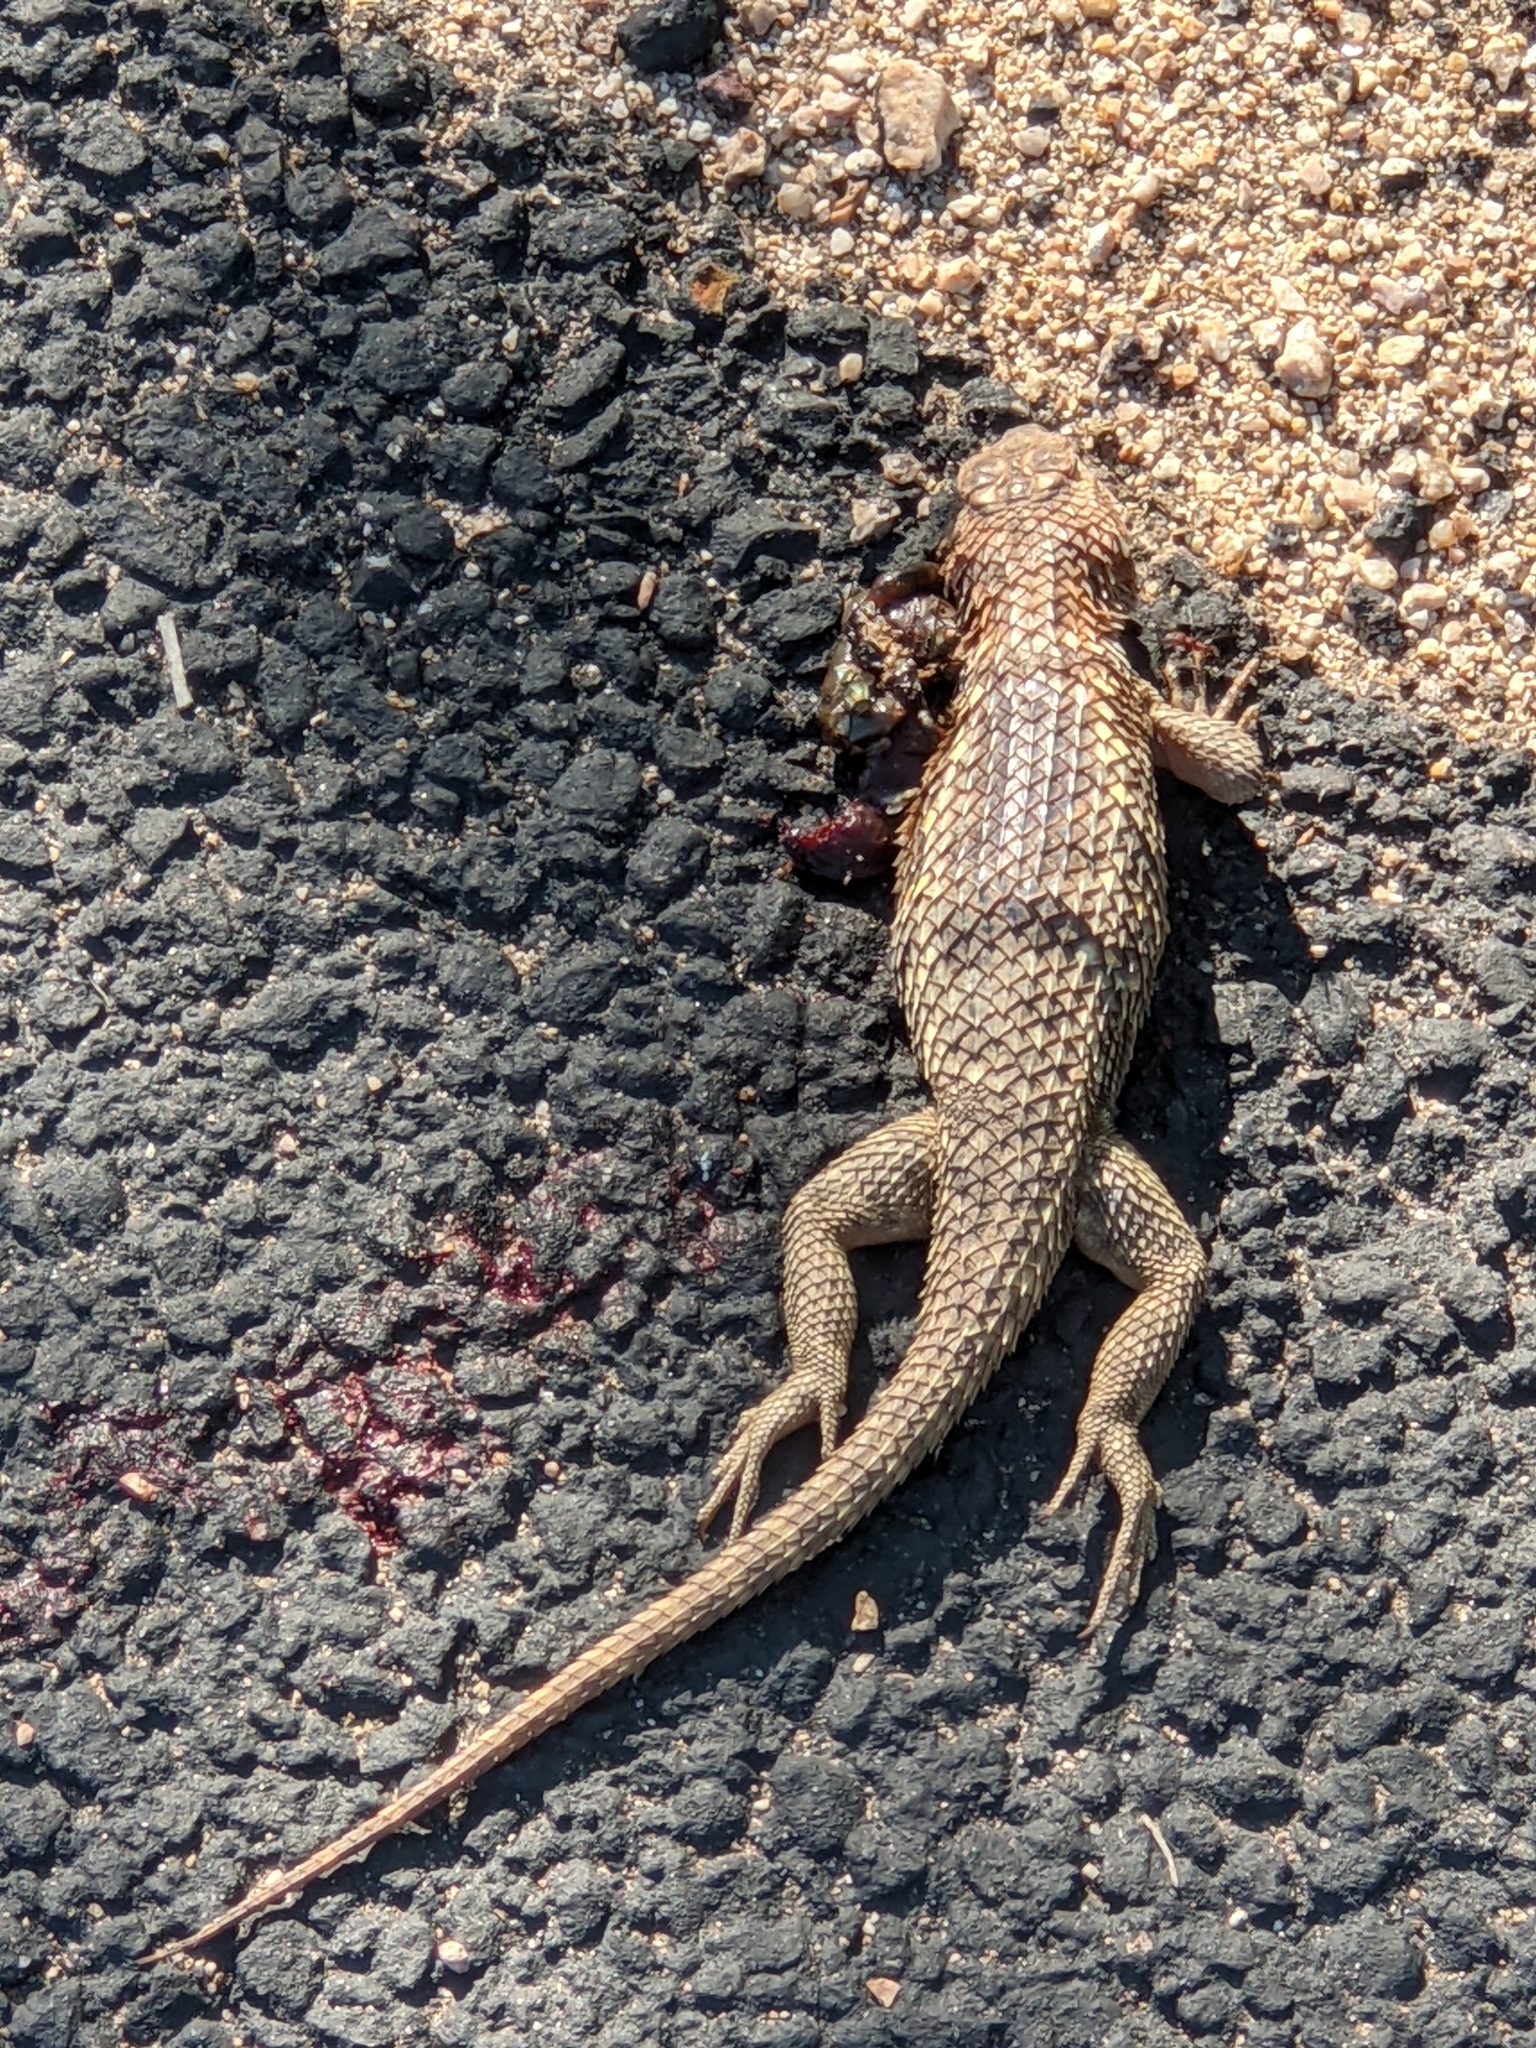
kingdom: Animalia
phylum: Chordata
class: Squamata
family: Phrynosomatidae
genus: Sceloporus
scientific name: Sceloporus magister
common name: Desert spiny lizard
